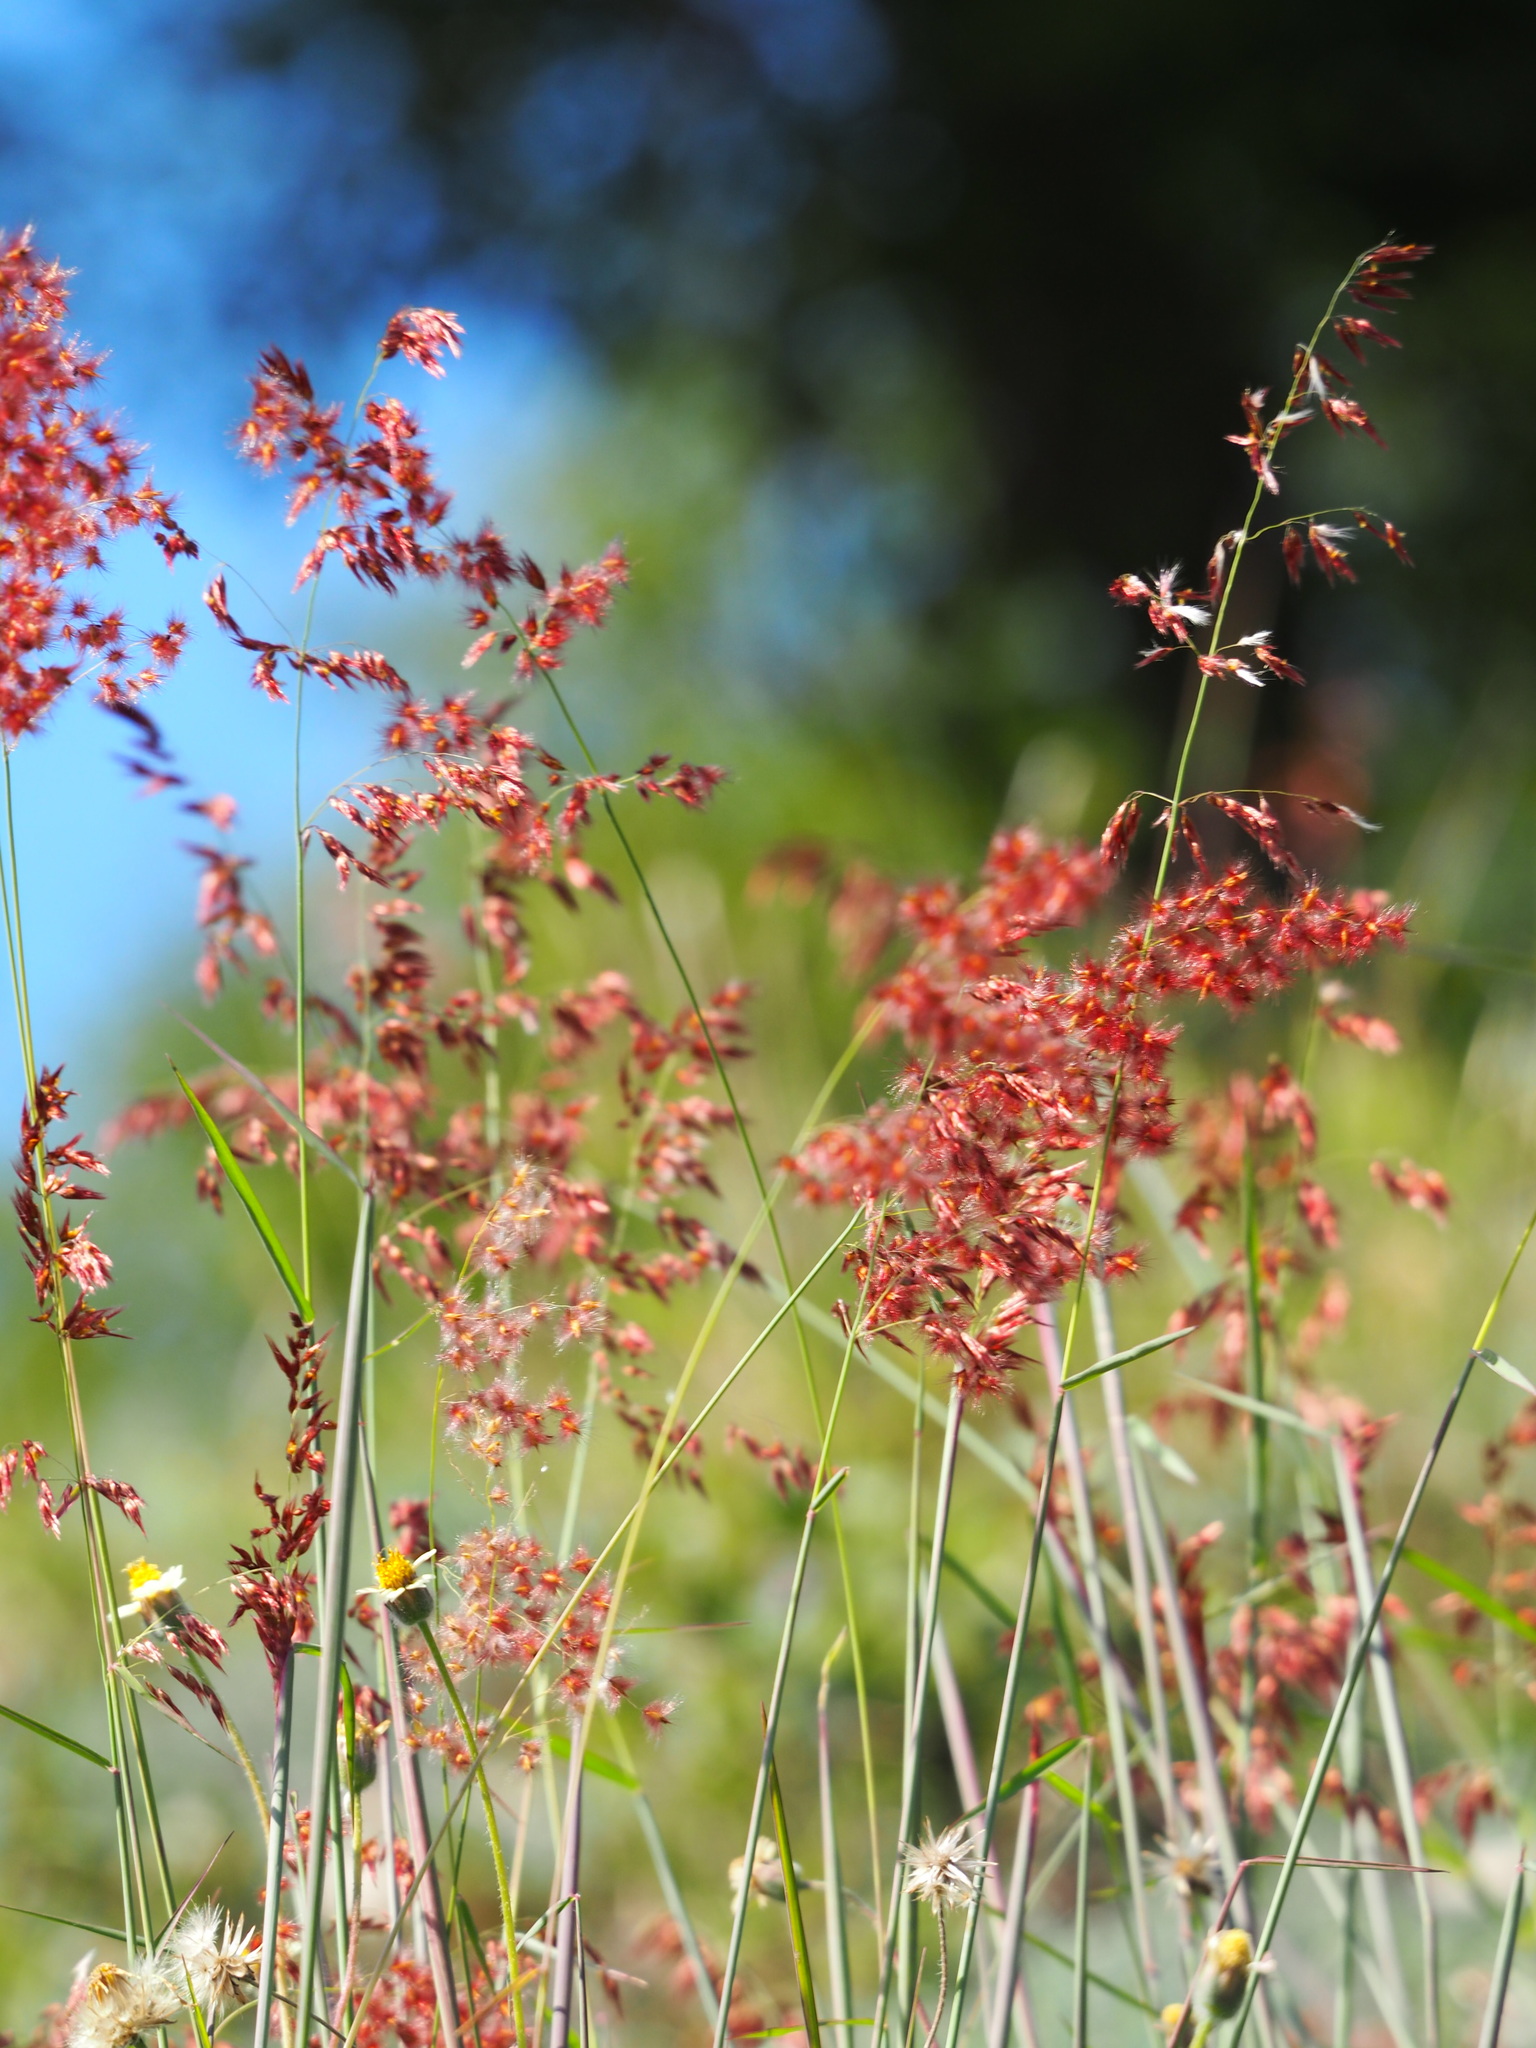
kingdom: Plantae
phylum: Tracheophyta
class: Liliopsida
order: Poales
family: Poaceae
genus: Melinis
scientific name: Melinis repens
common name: Rose natal grass
